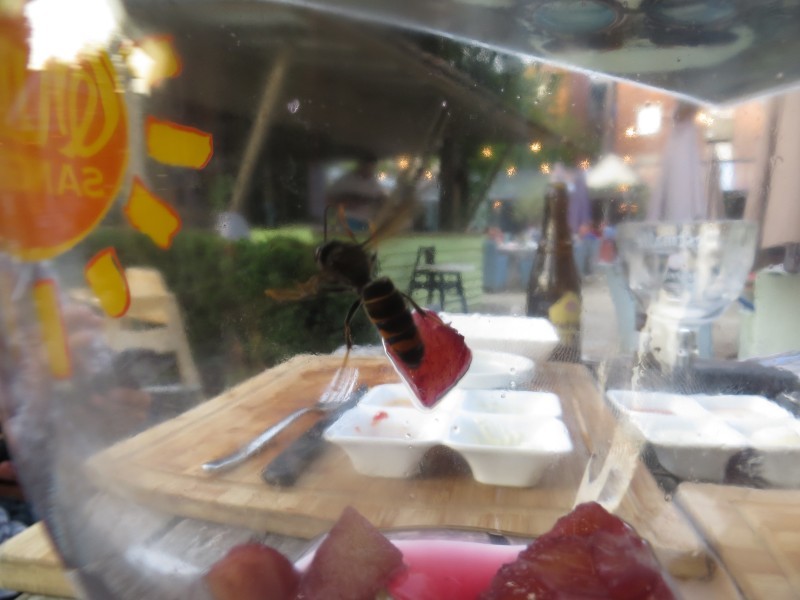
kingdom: Animalia
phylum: Arthropoda
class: Insecta
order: Hymenoptera
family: Vespidae
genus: Vespa
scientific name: Vespa velutina
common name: Asian hornet
